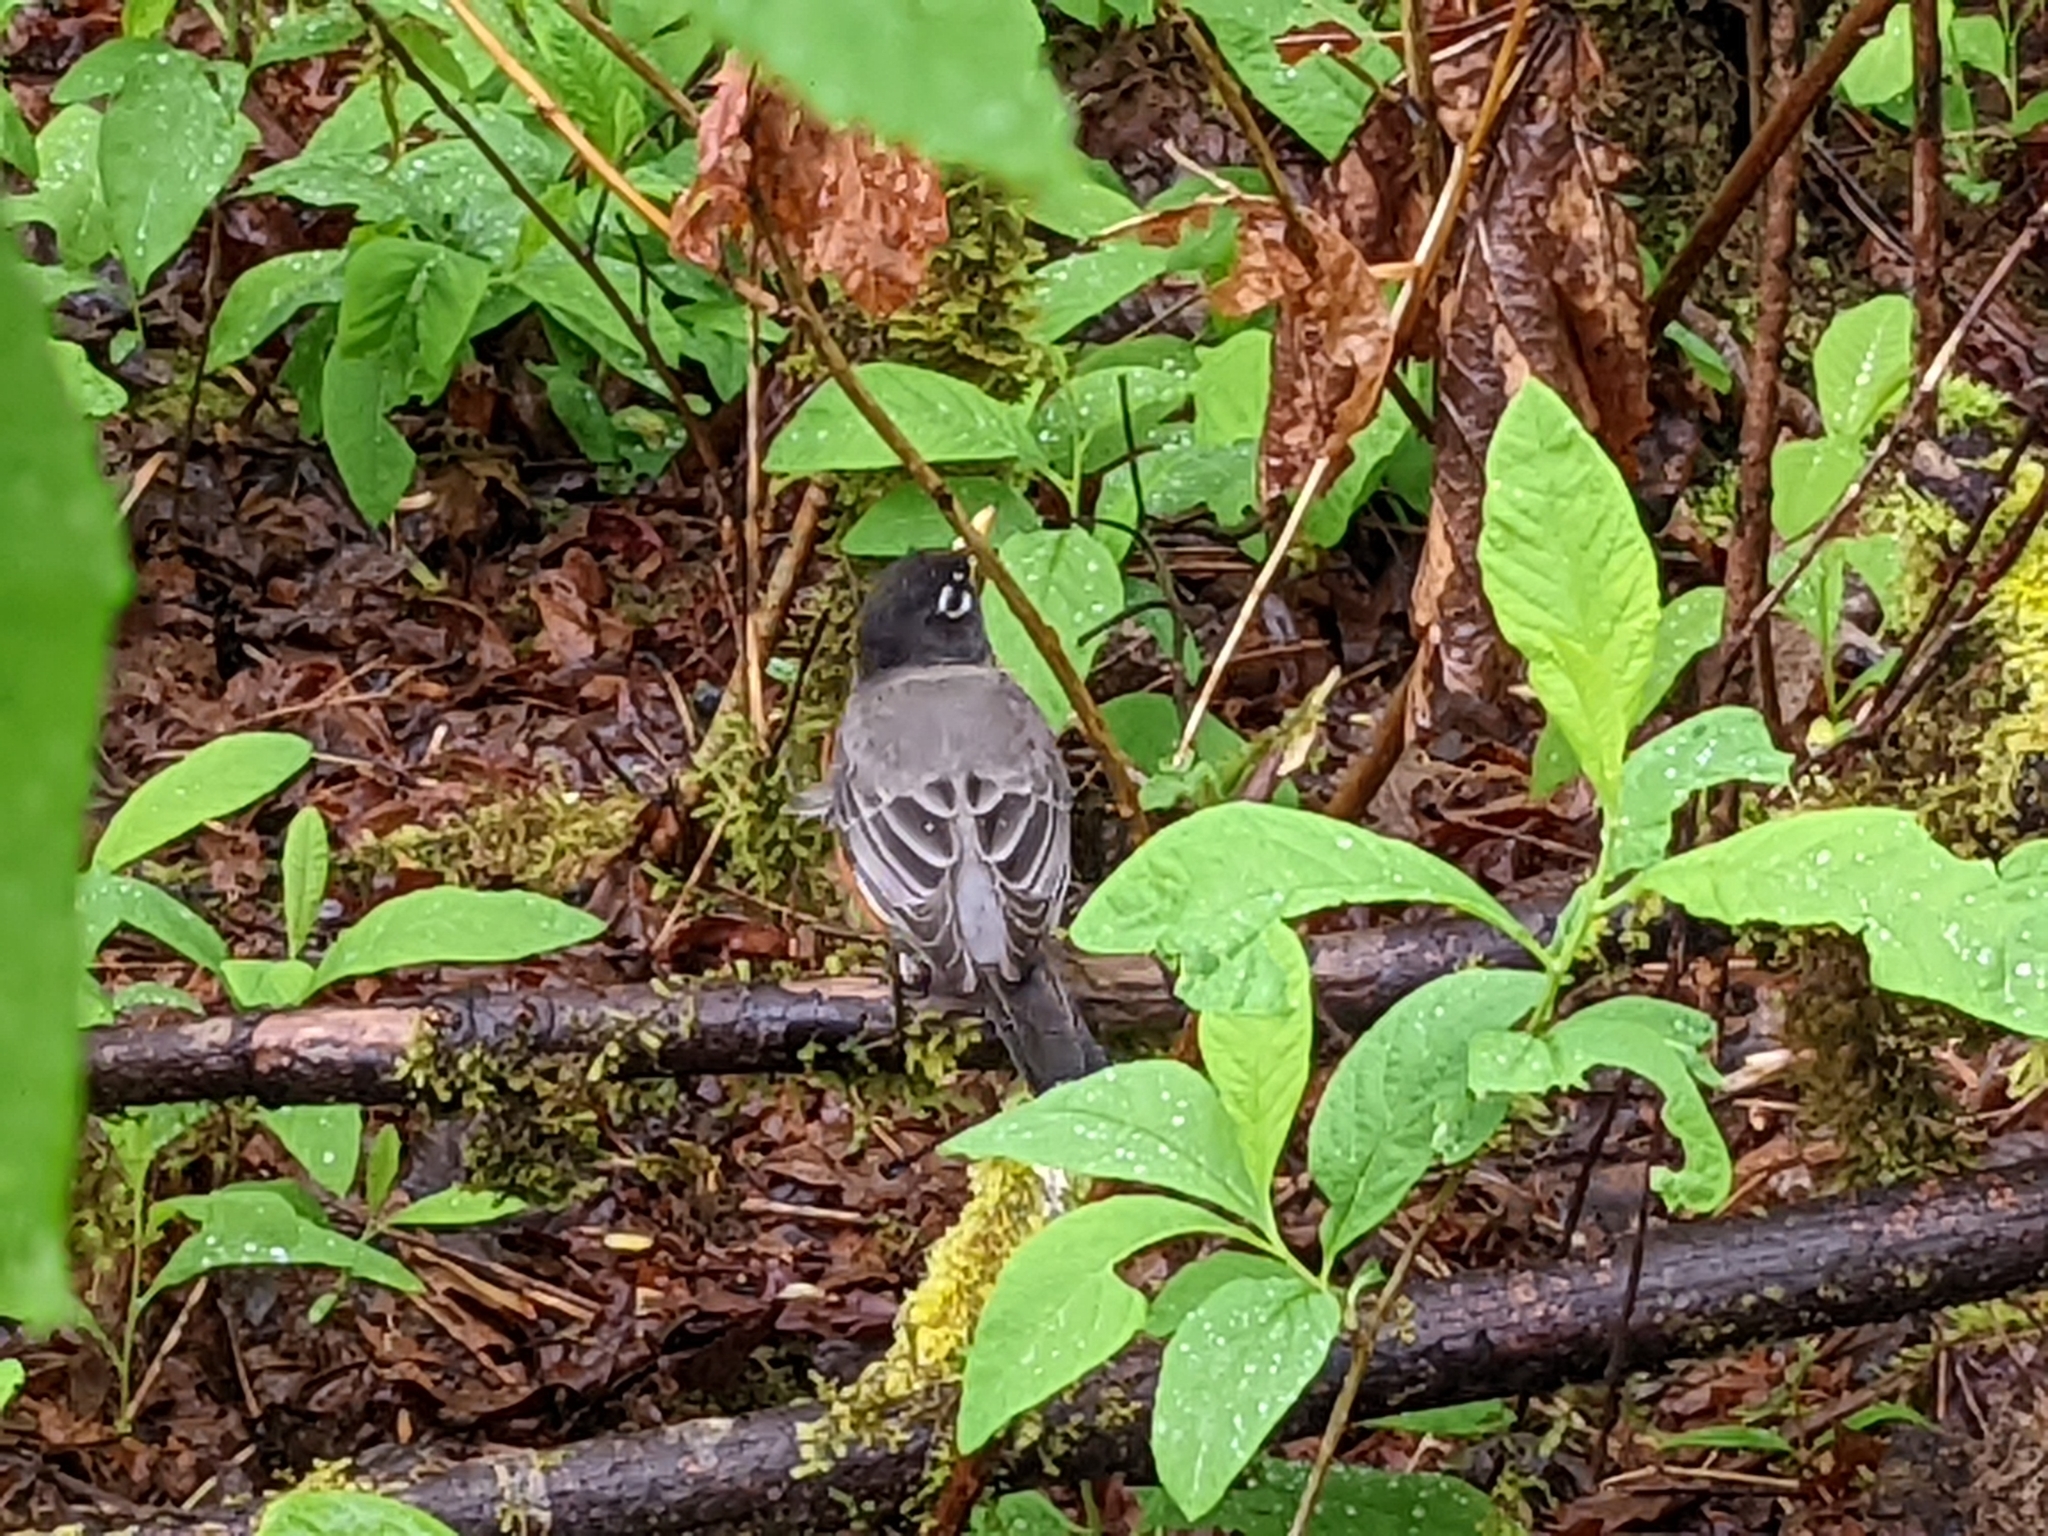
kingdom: Animalia
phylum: Chordata
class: Aves
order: Passeriformes
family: Turdidae
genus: Turdus
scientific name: Turdus migratorius
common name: American robin
